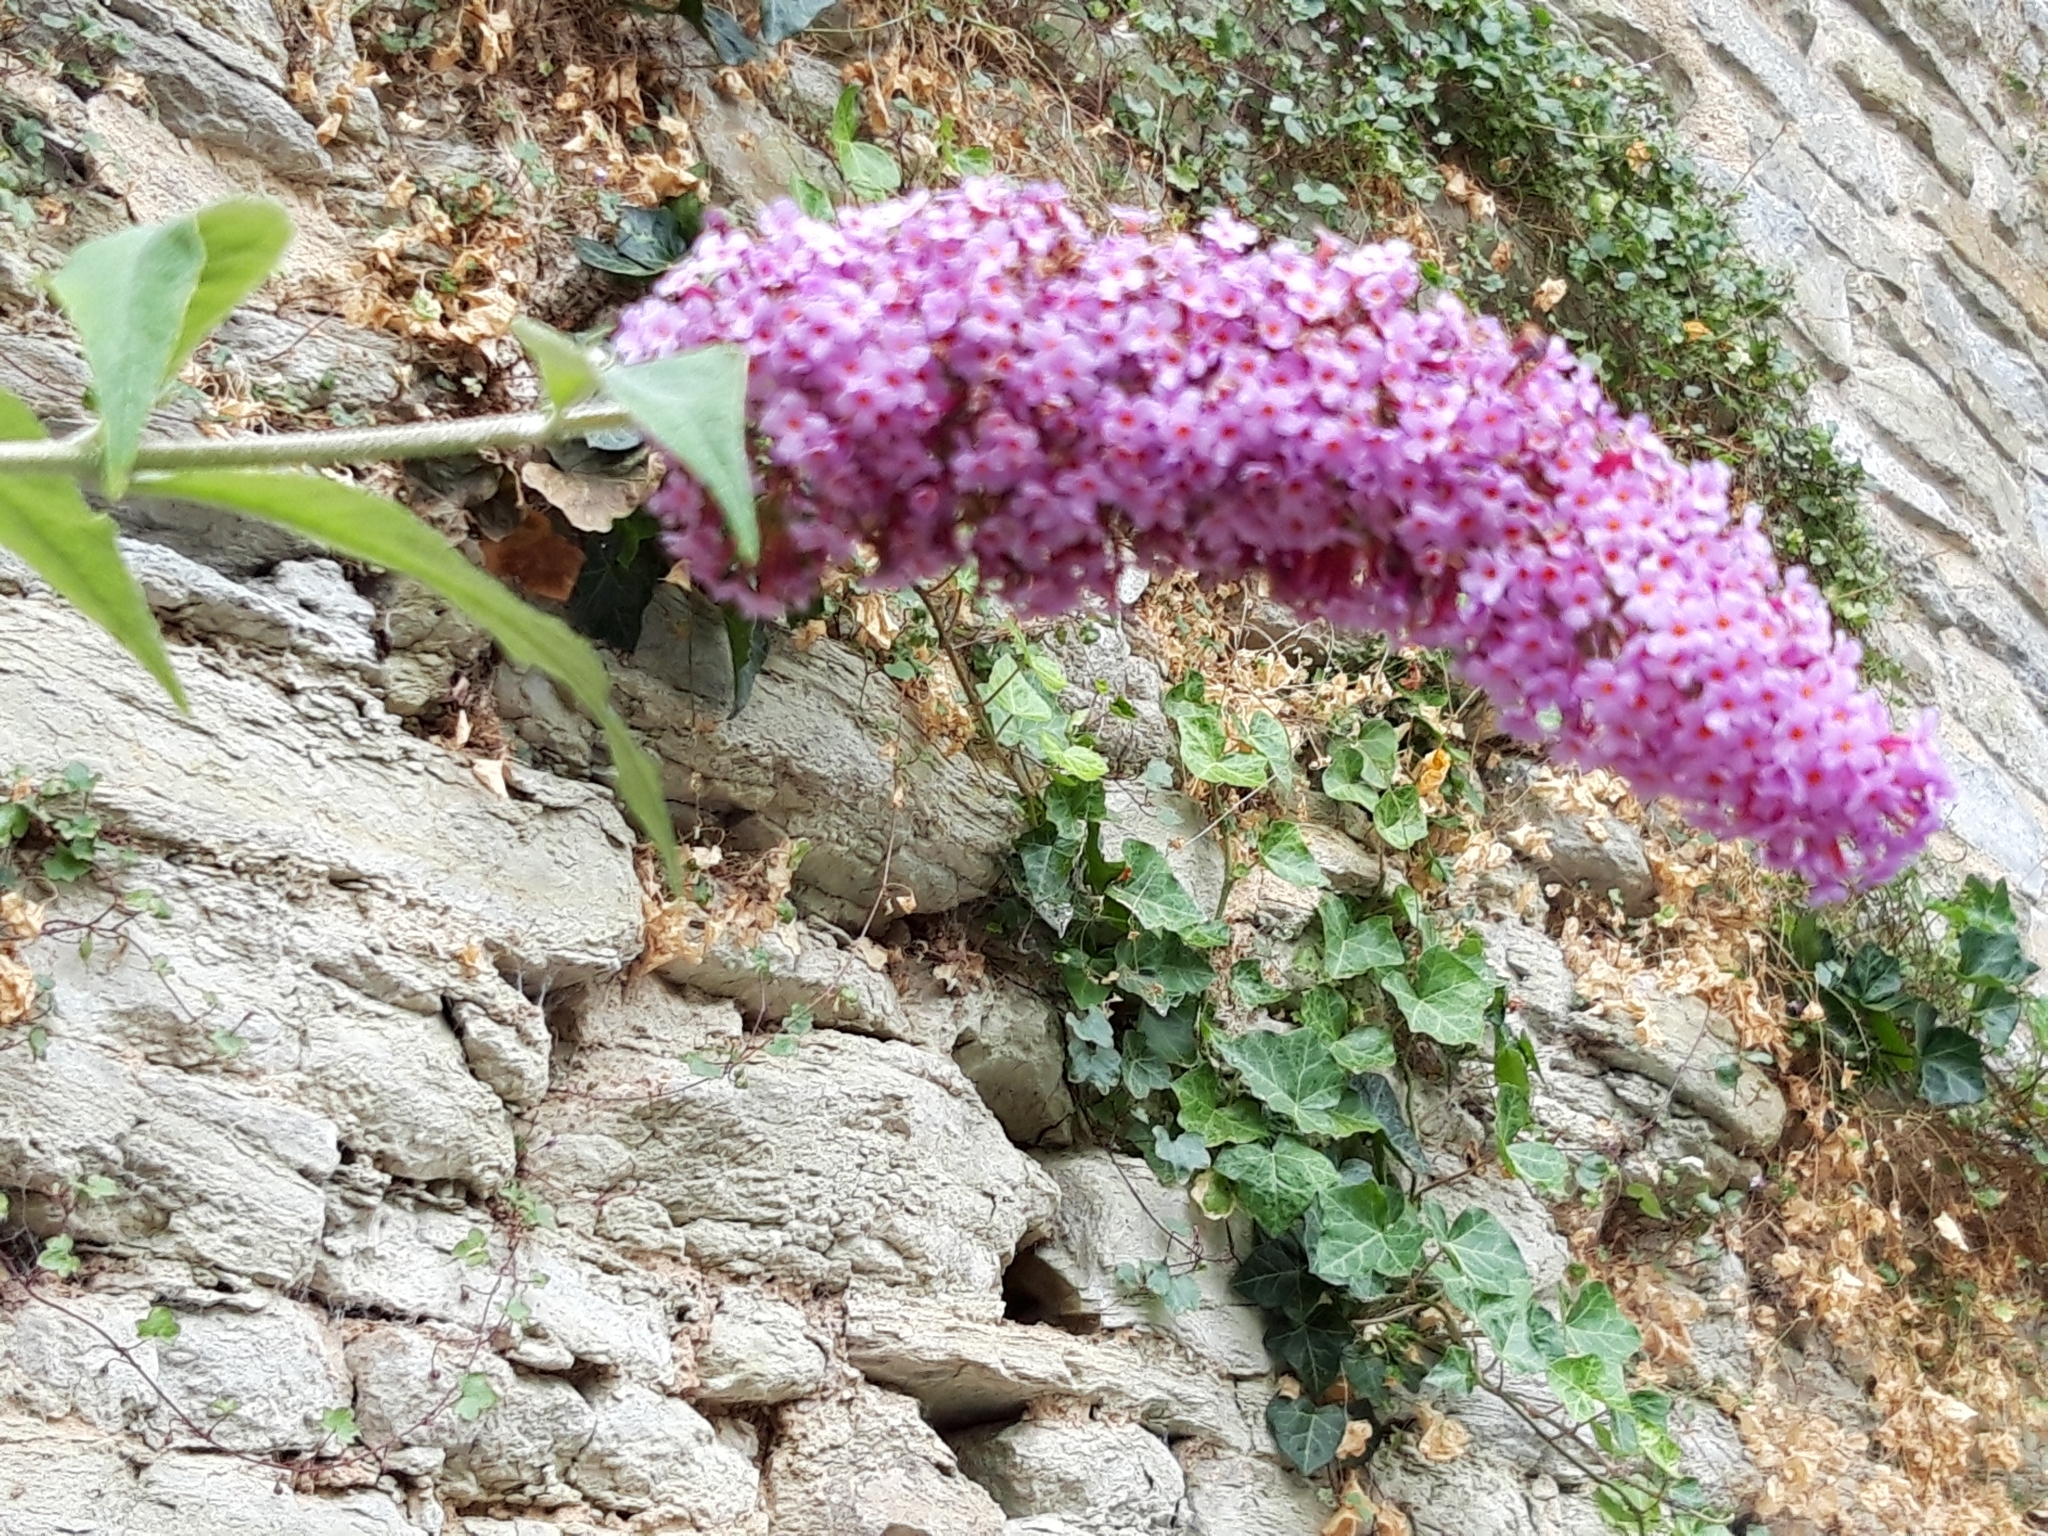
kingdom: Plantae
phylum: Tracheophyta
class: Magnoliopsida
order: Lamiales
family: Scrophulariaceae
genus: Buddleja
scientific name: Buddleja davidii
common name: Butterfly-bush
